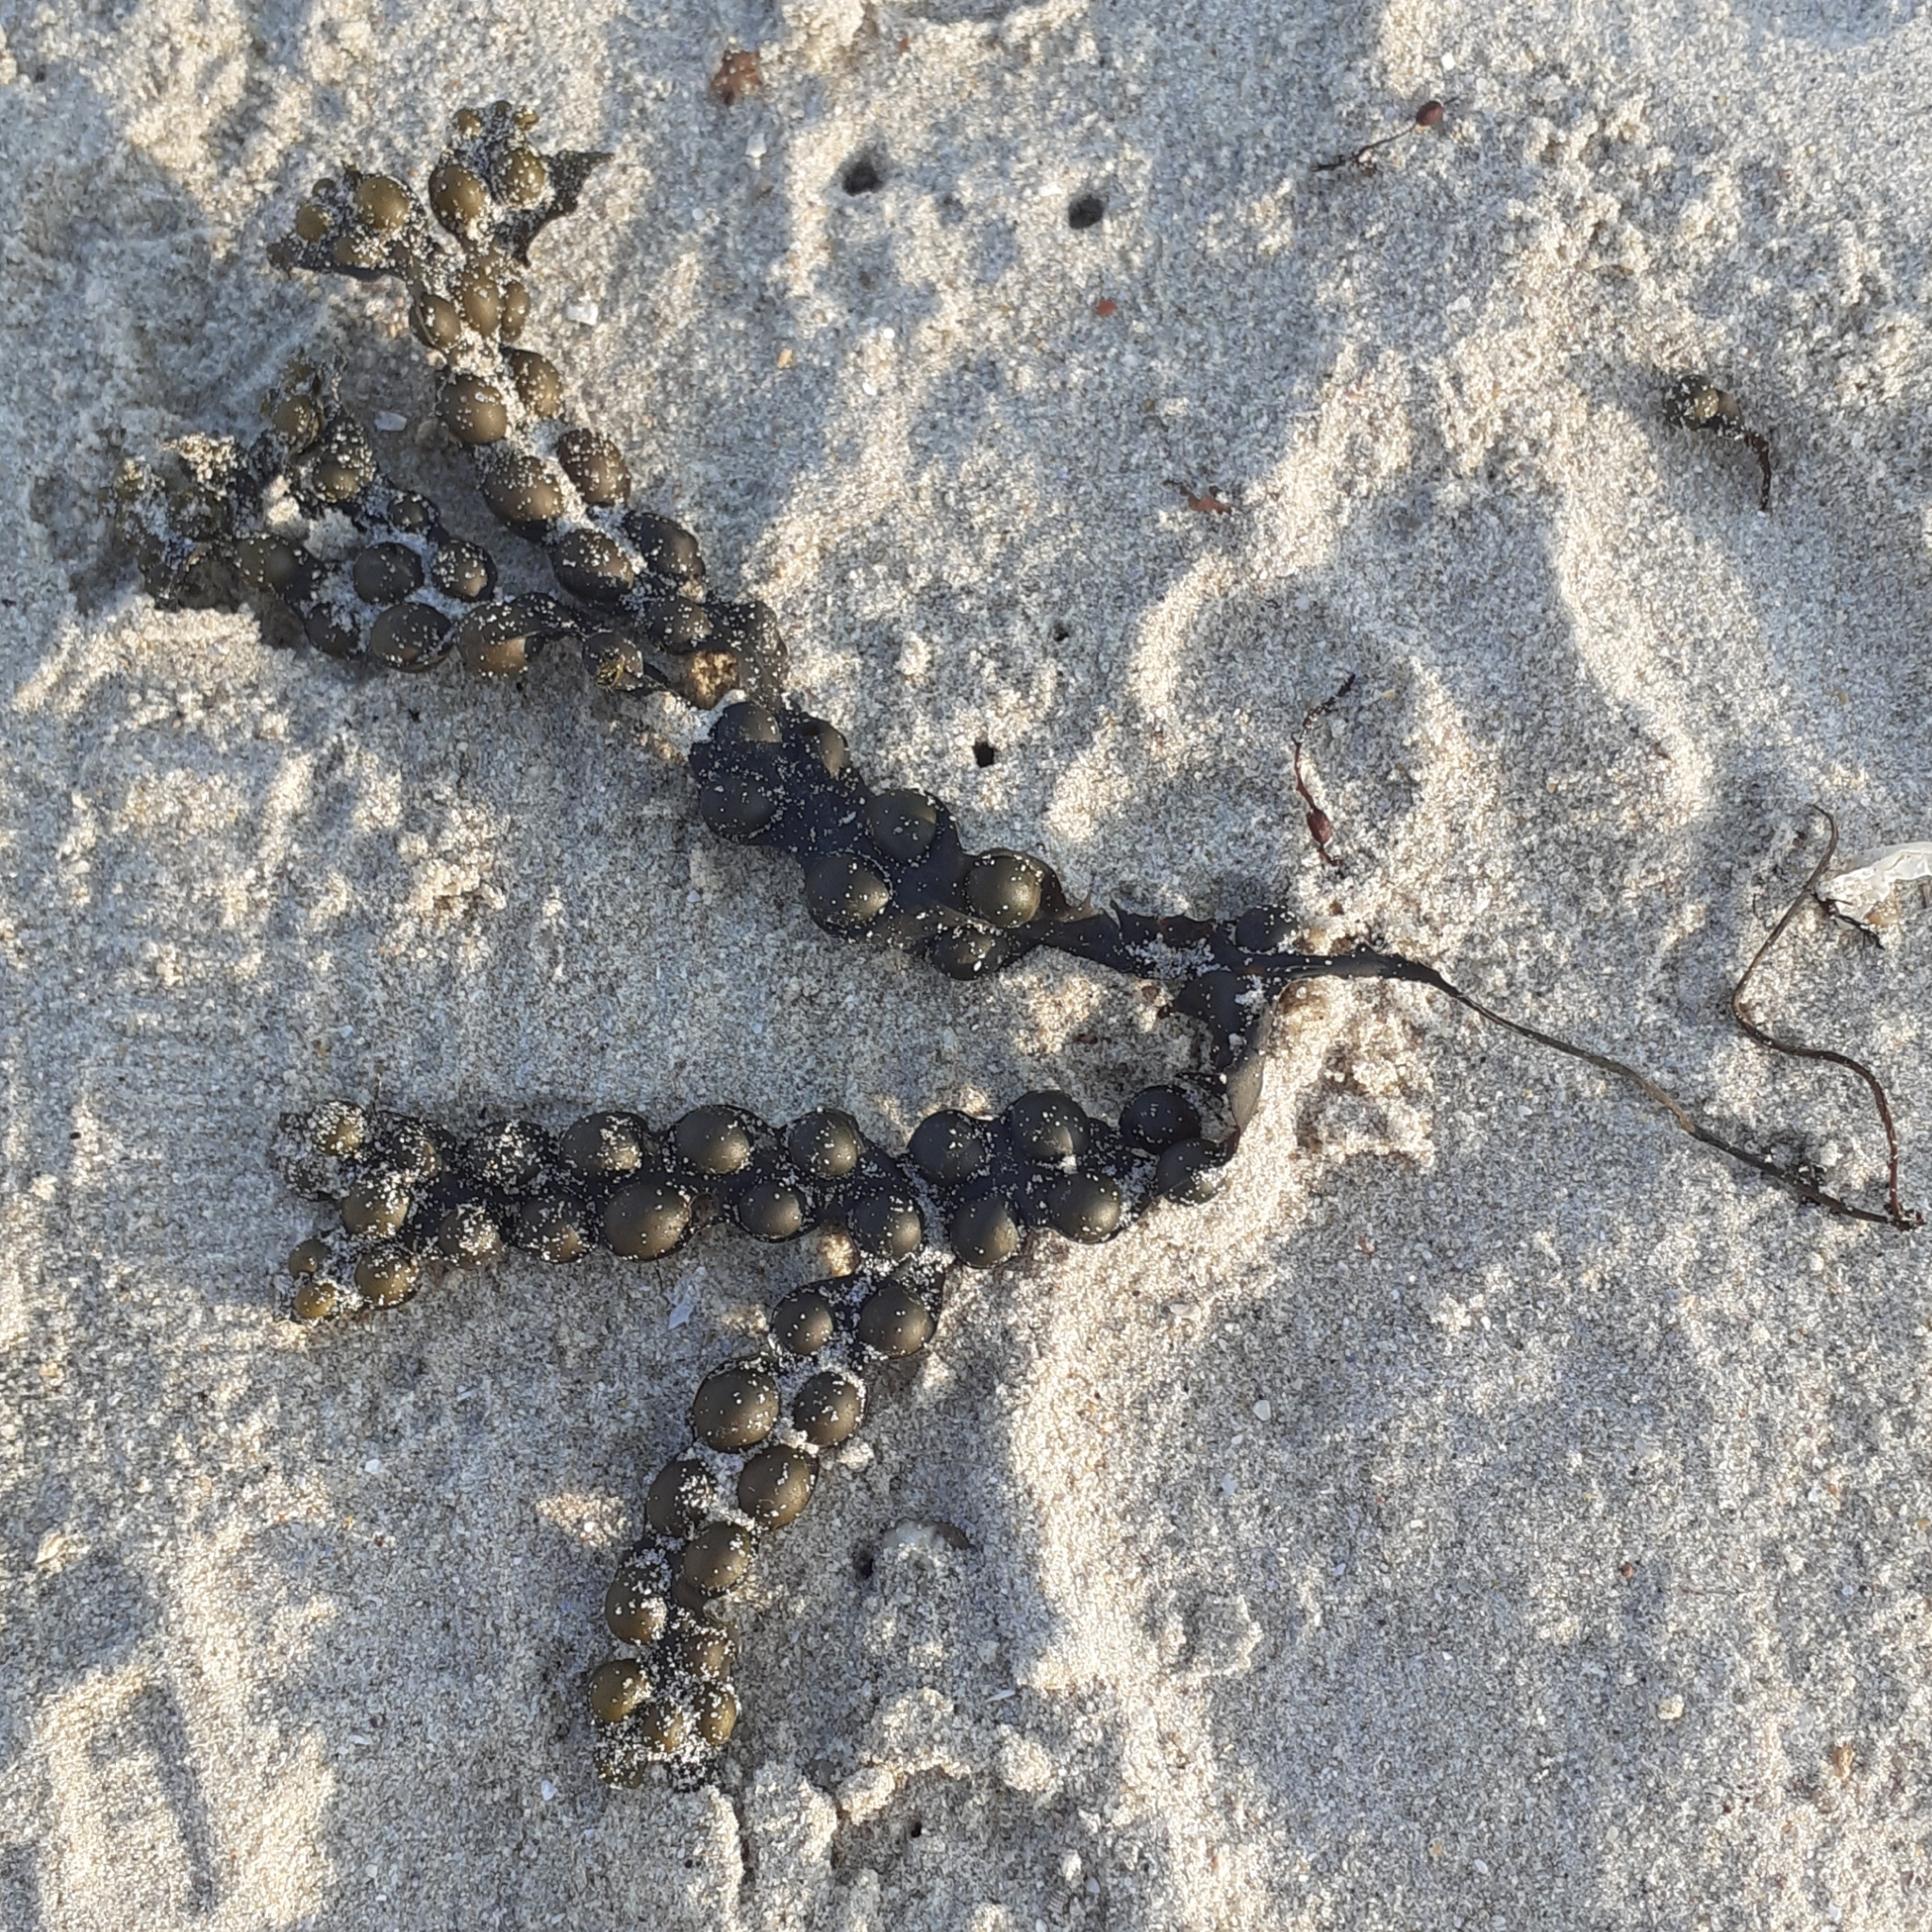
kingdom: Chromista
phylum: Ochrophyta
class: Phaeophyceae
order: Fucales
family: Fucaceae
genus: Fucus
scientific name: Fucus vesiculosus
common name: Bladder wrack
